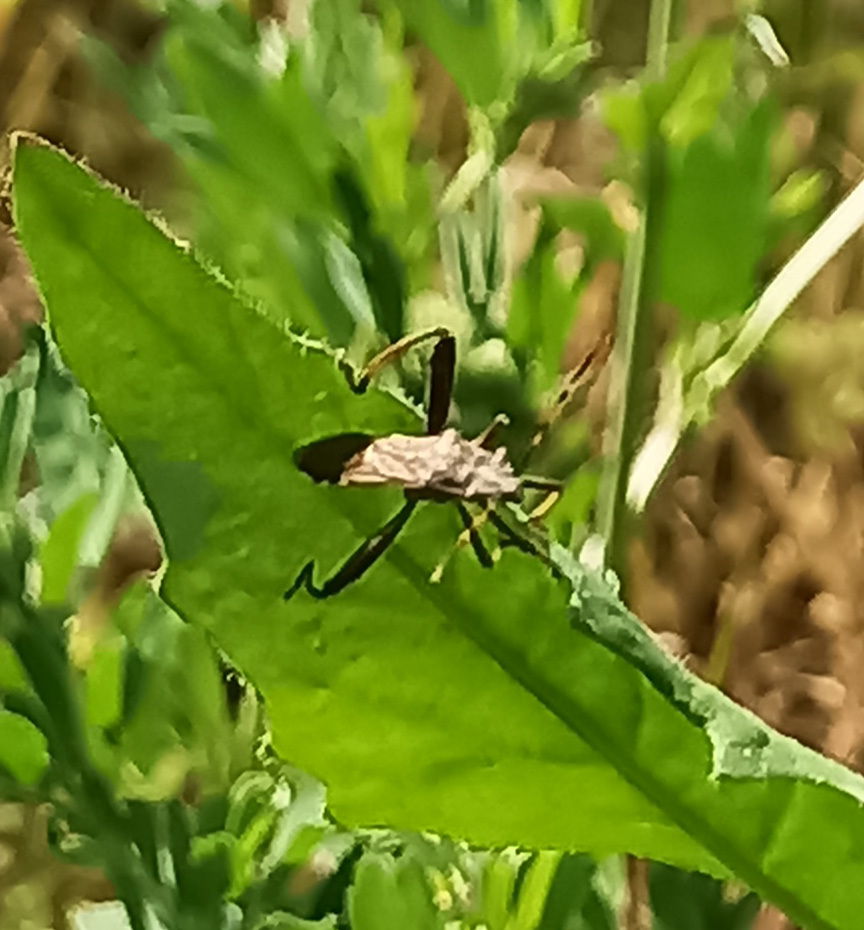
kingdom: Animalia
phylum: Arthropoda
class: Insecta
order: Hemiptera
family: Alydidae
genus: Camptopus
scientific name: Camptopus lateralis
